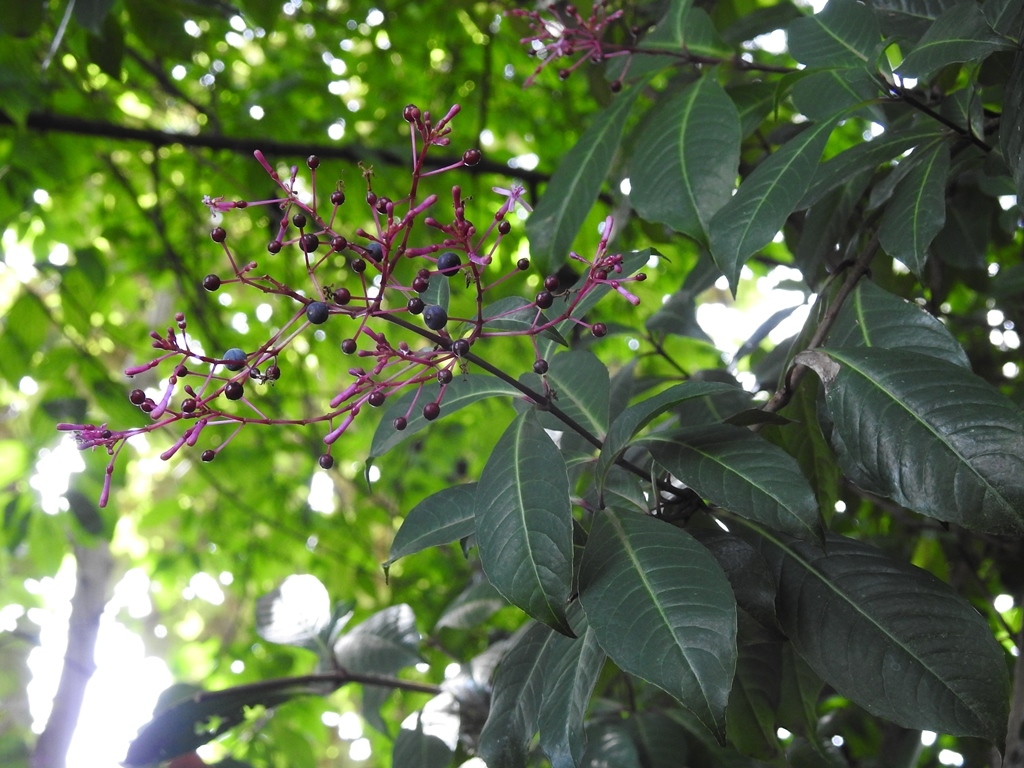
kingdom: Plantae
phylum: Tracheophyta
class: Magnoliopsida
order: Myrtales
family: Onagraceae
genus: Fuchsia
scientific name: Fuchsia paniculata
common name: Shrubby fuchsia
